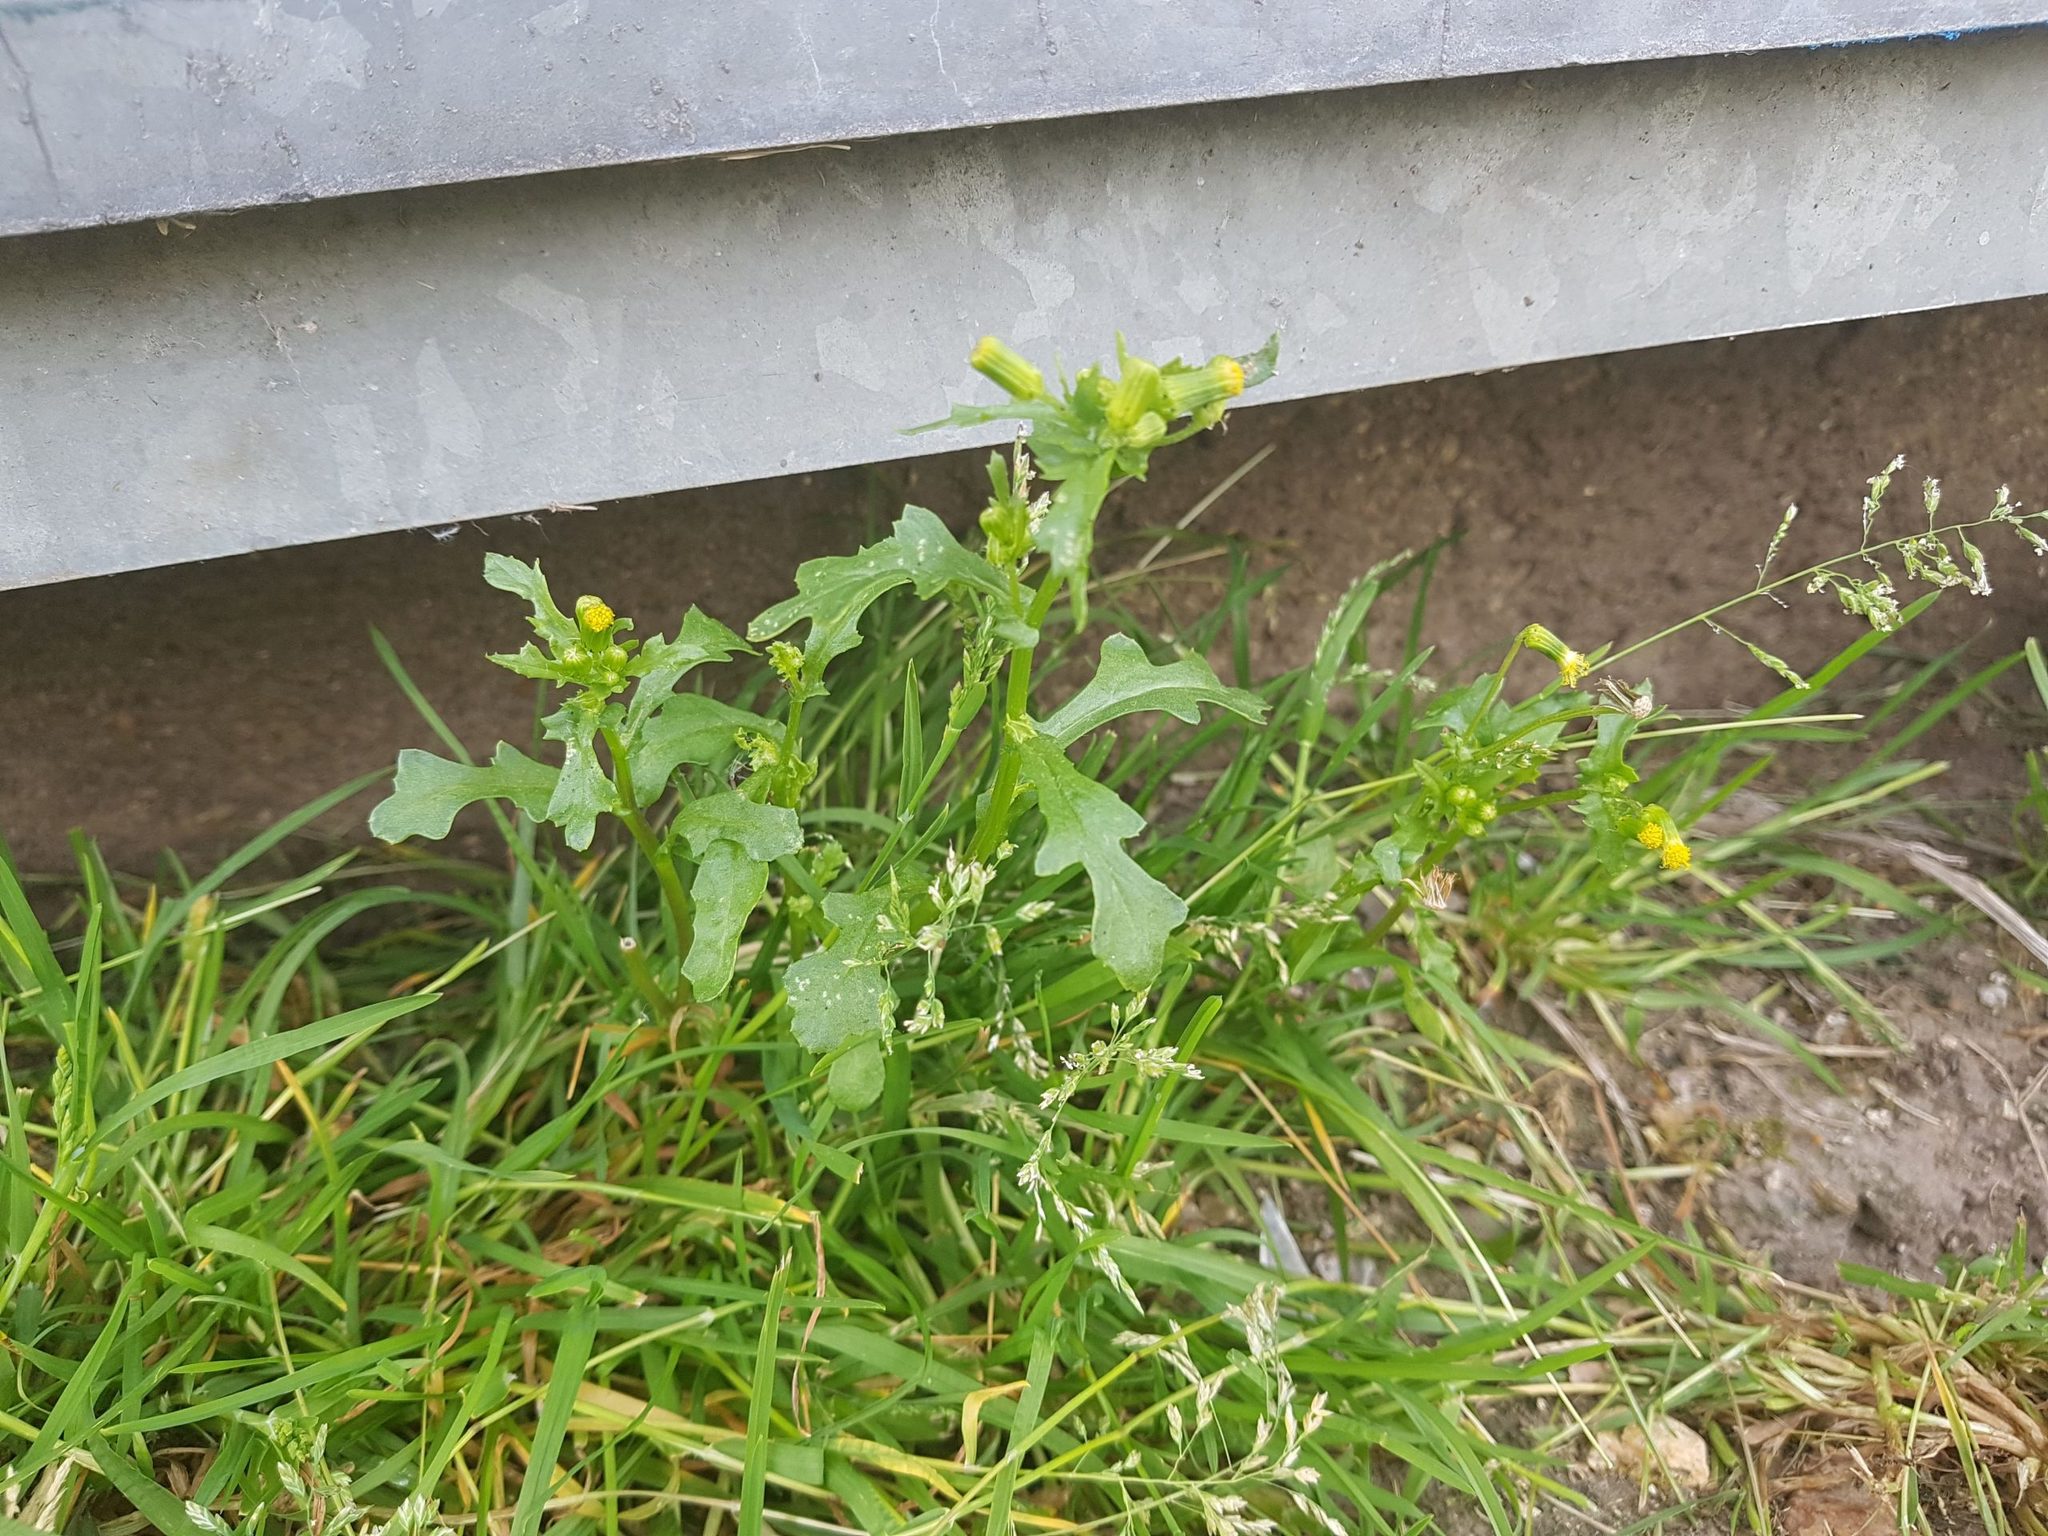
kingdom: Plantae
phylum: Tracheophyta
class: Magnoliopsida
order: Asterales
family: Asteraceae
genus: Senecio
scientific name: Senecio vulgaris
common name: Old-man-in-the-spring
